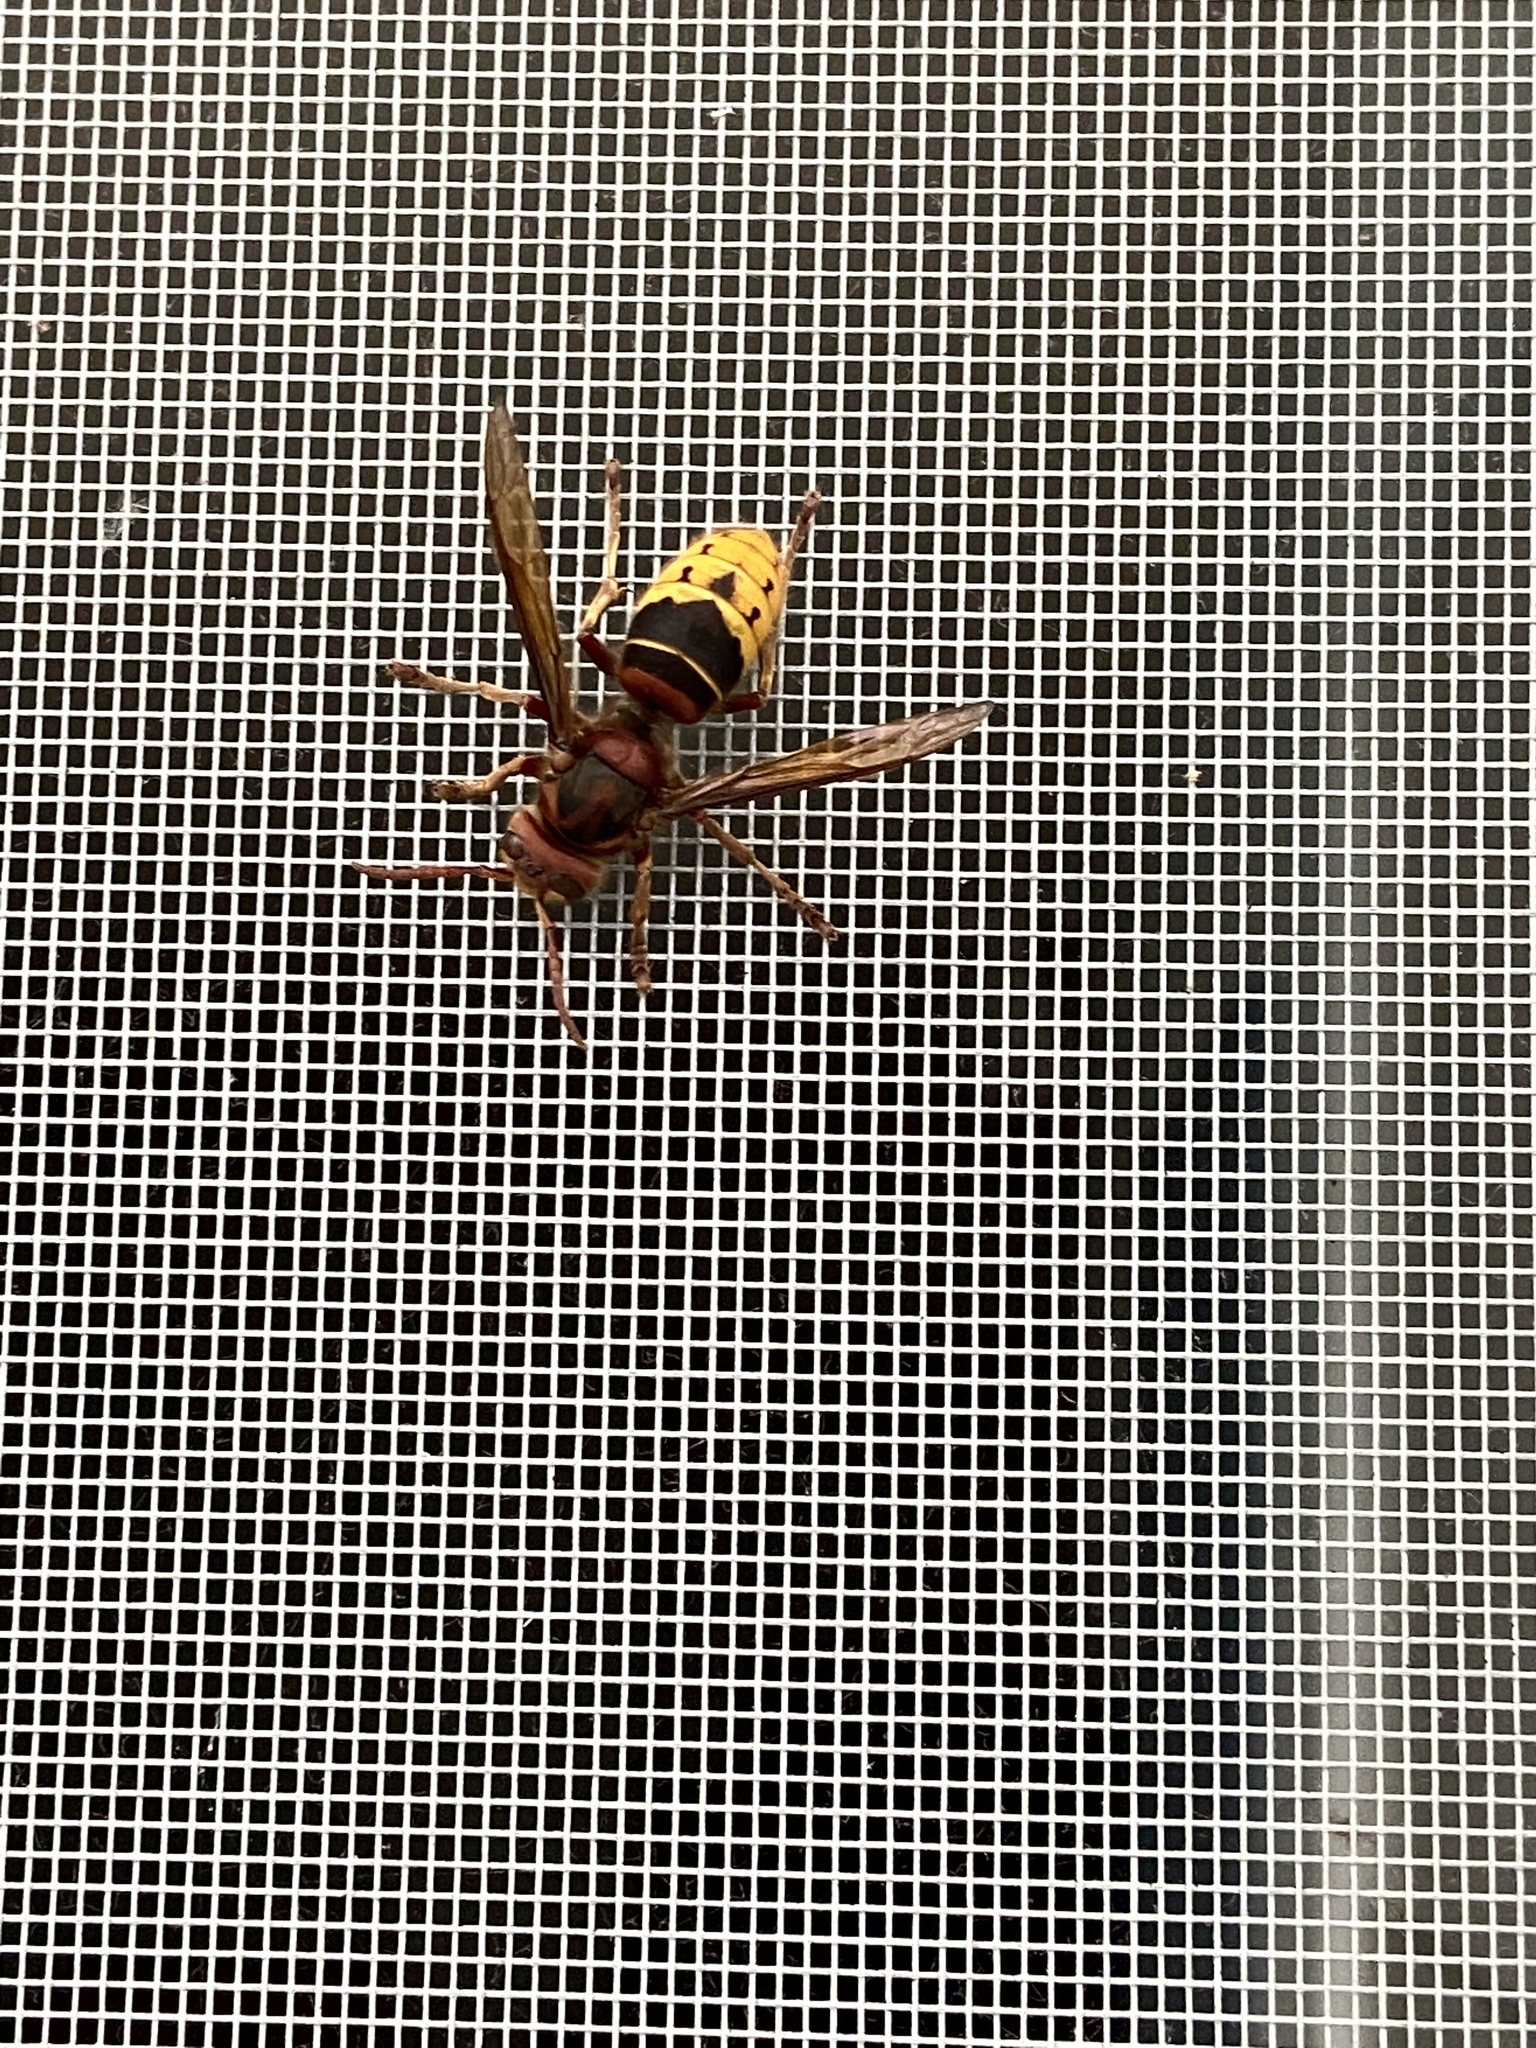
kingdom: Animalia
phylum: Arthropoda
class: Insecta
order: Hymenoptera
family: Vespidae
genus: Vespa
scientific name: Vespa crabro
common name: Hornet
